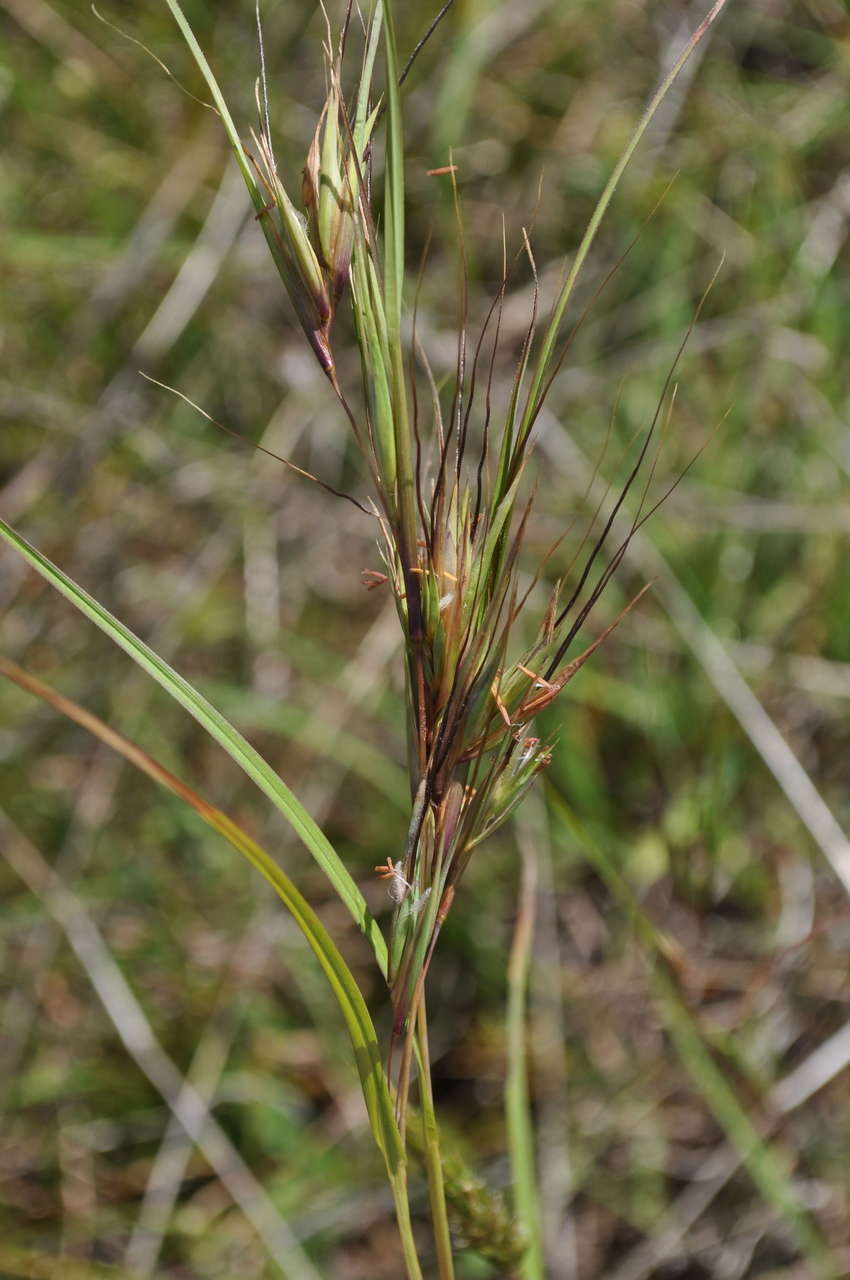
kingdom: Plantae
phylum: Tracheophyta
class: Liliopsida
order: Poales
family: Poaceae
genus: Themeda
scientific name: Themeda triandra
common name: Kangaroo grass
